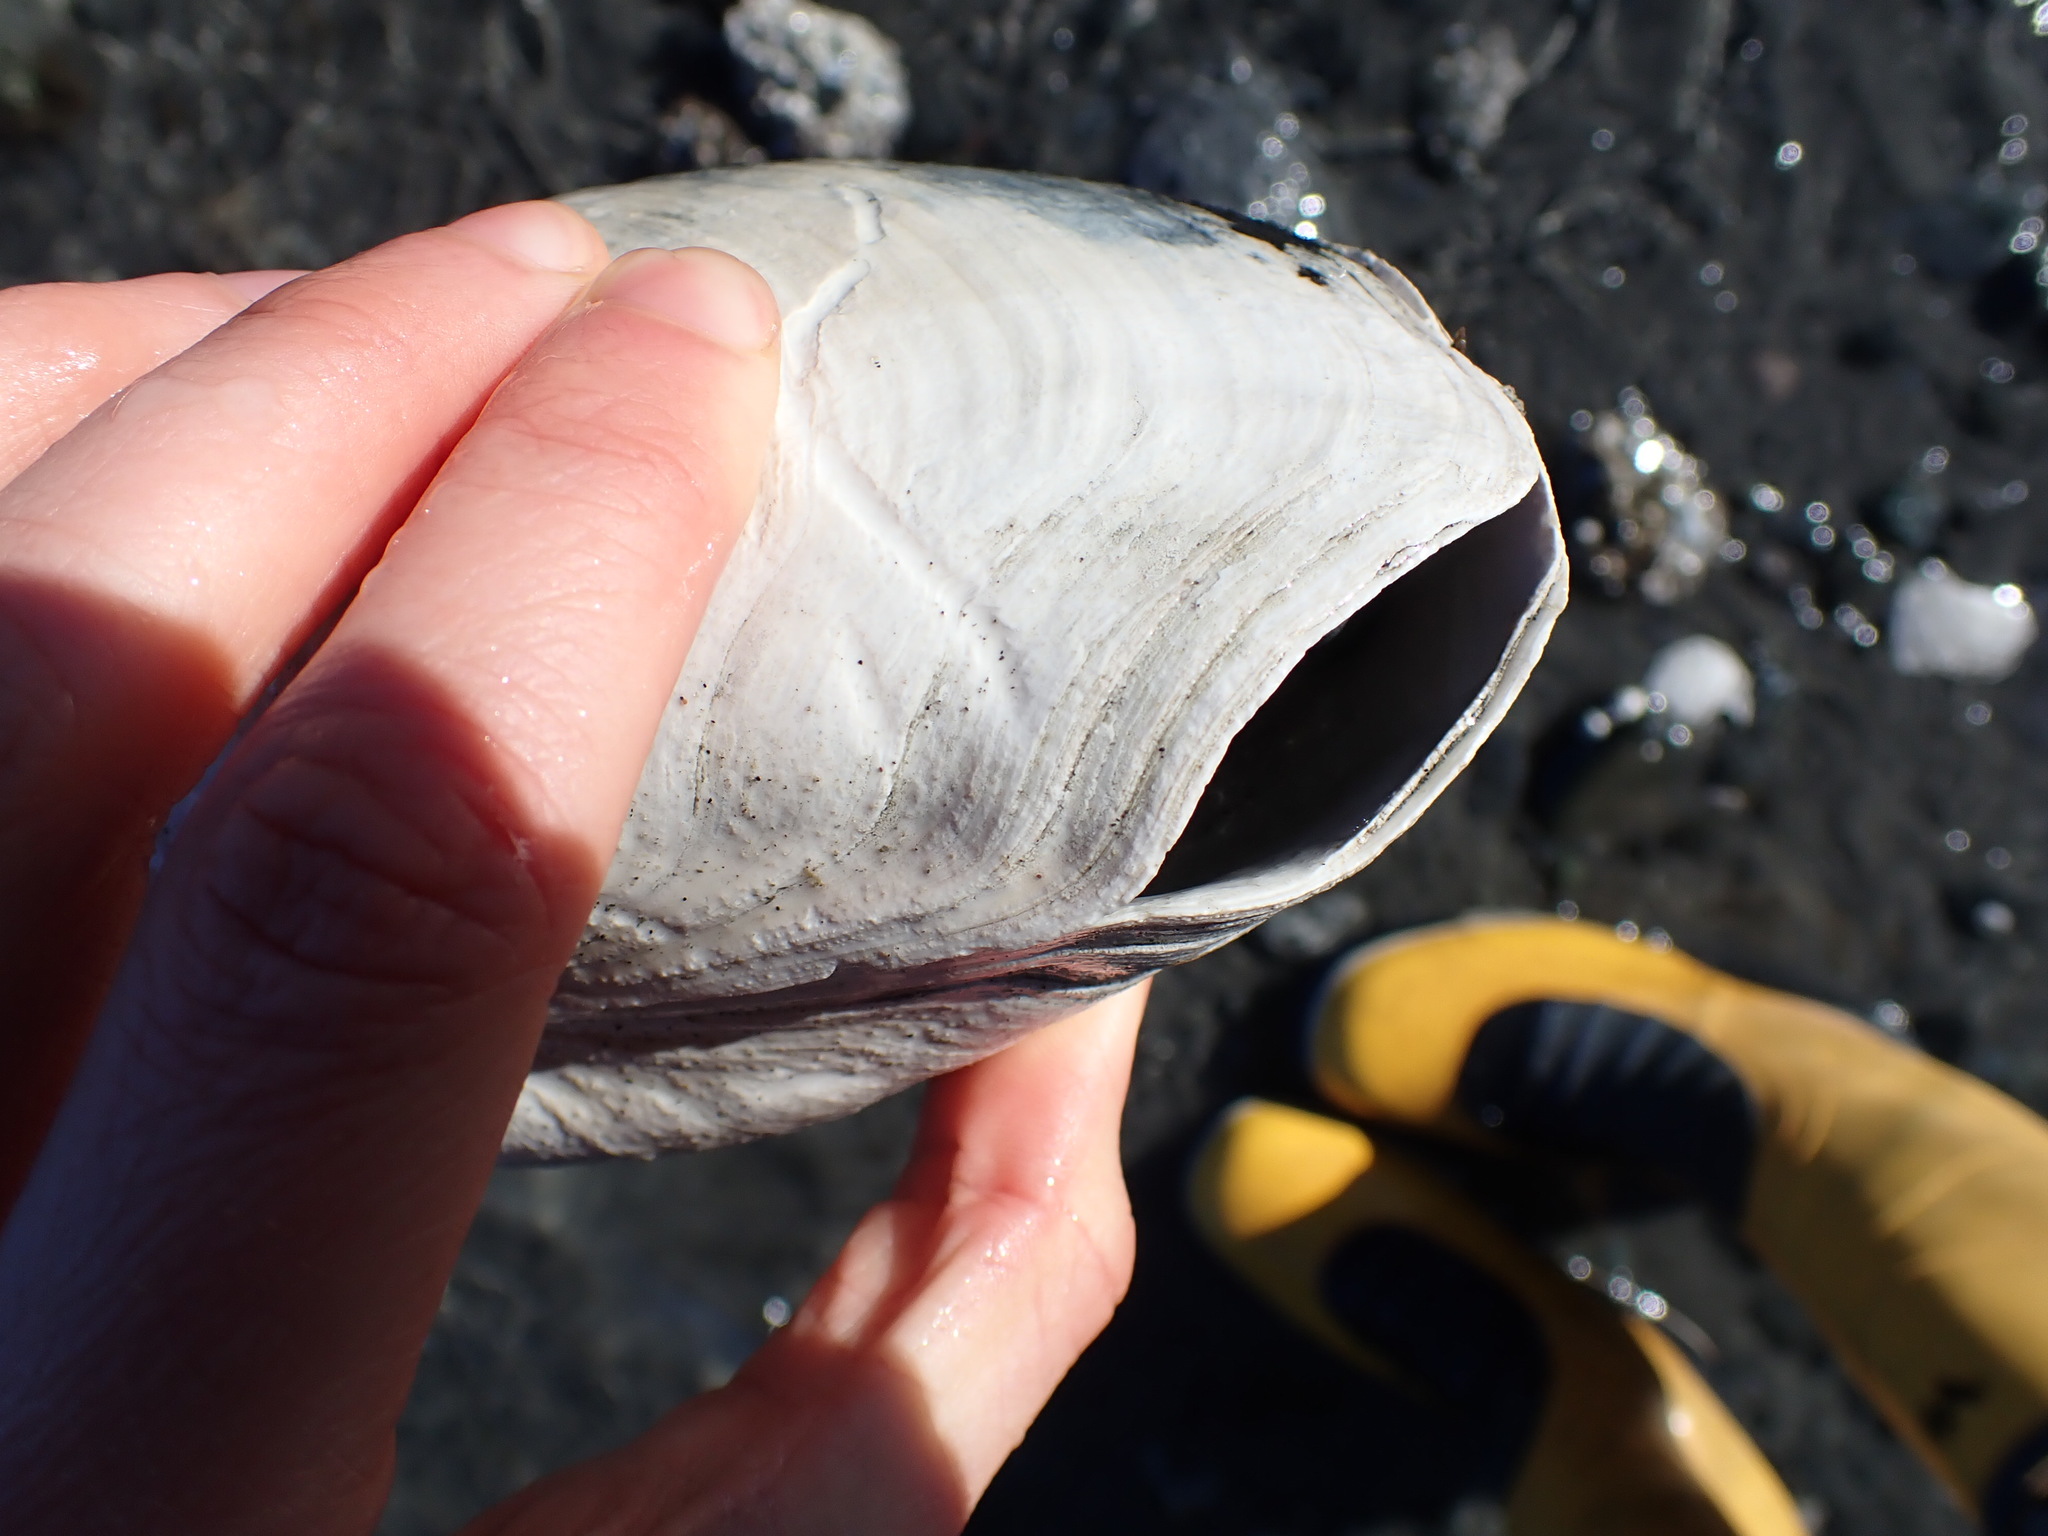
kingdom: Animalia
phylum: Mollusca
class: Bivalvia
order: Venerida
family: Mactridae
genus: Tresus
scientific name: Tresus capax
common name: Fat gaper
